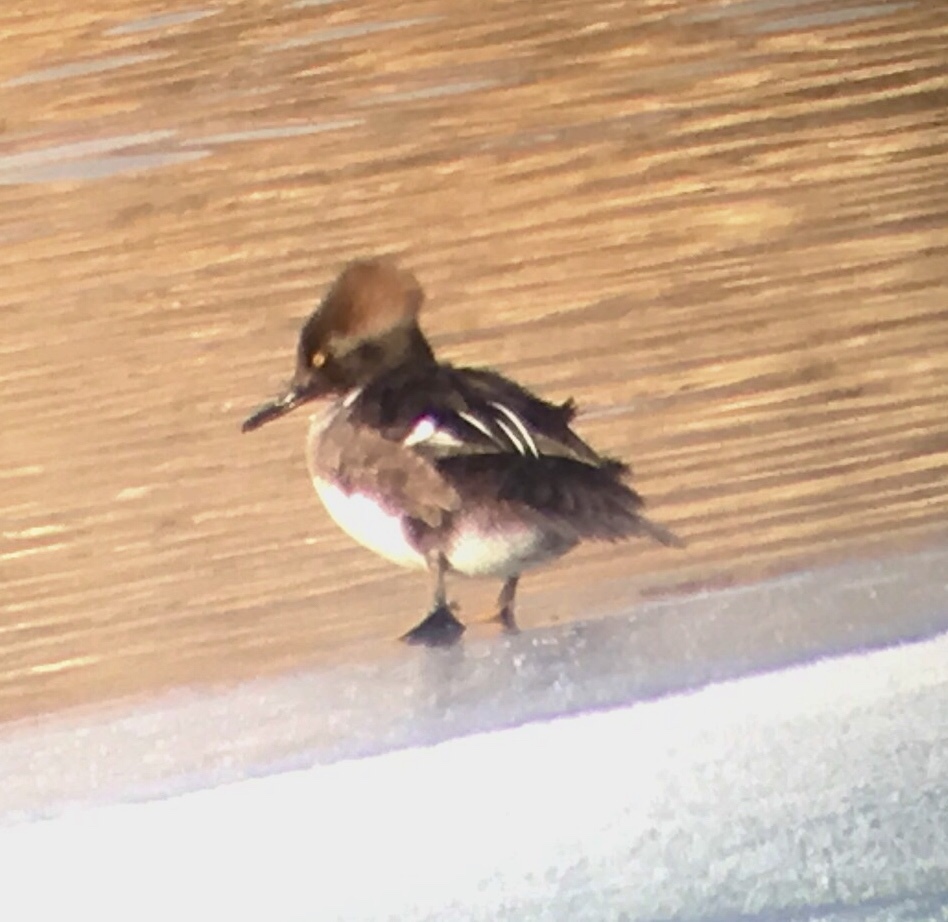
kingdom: Animalia
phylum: Chordata
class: Aves
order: Anseriformes
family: Anatidae
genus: Lophodytes
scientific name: Lophodytes cucullatus
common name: Hooded merganser
